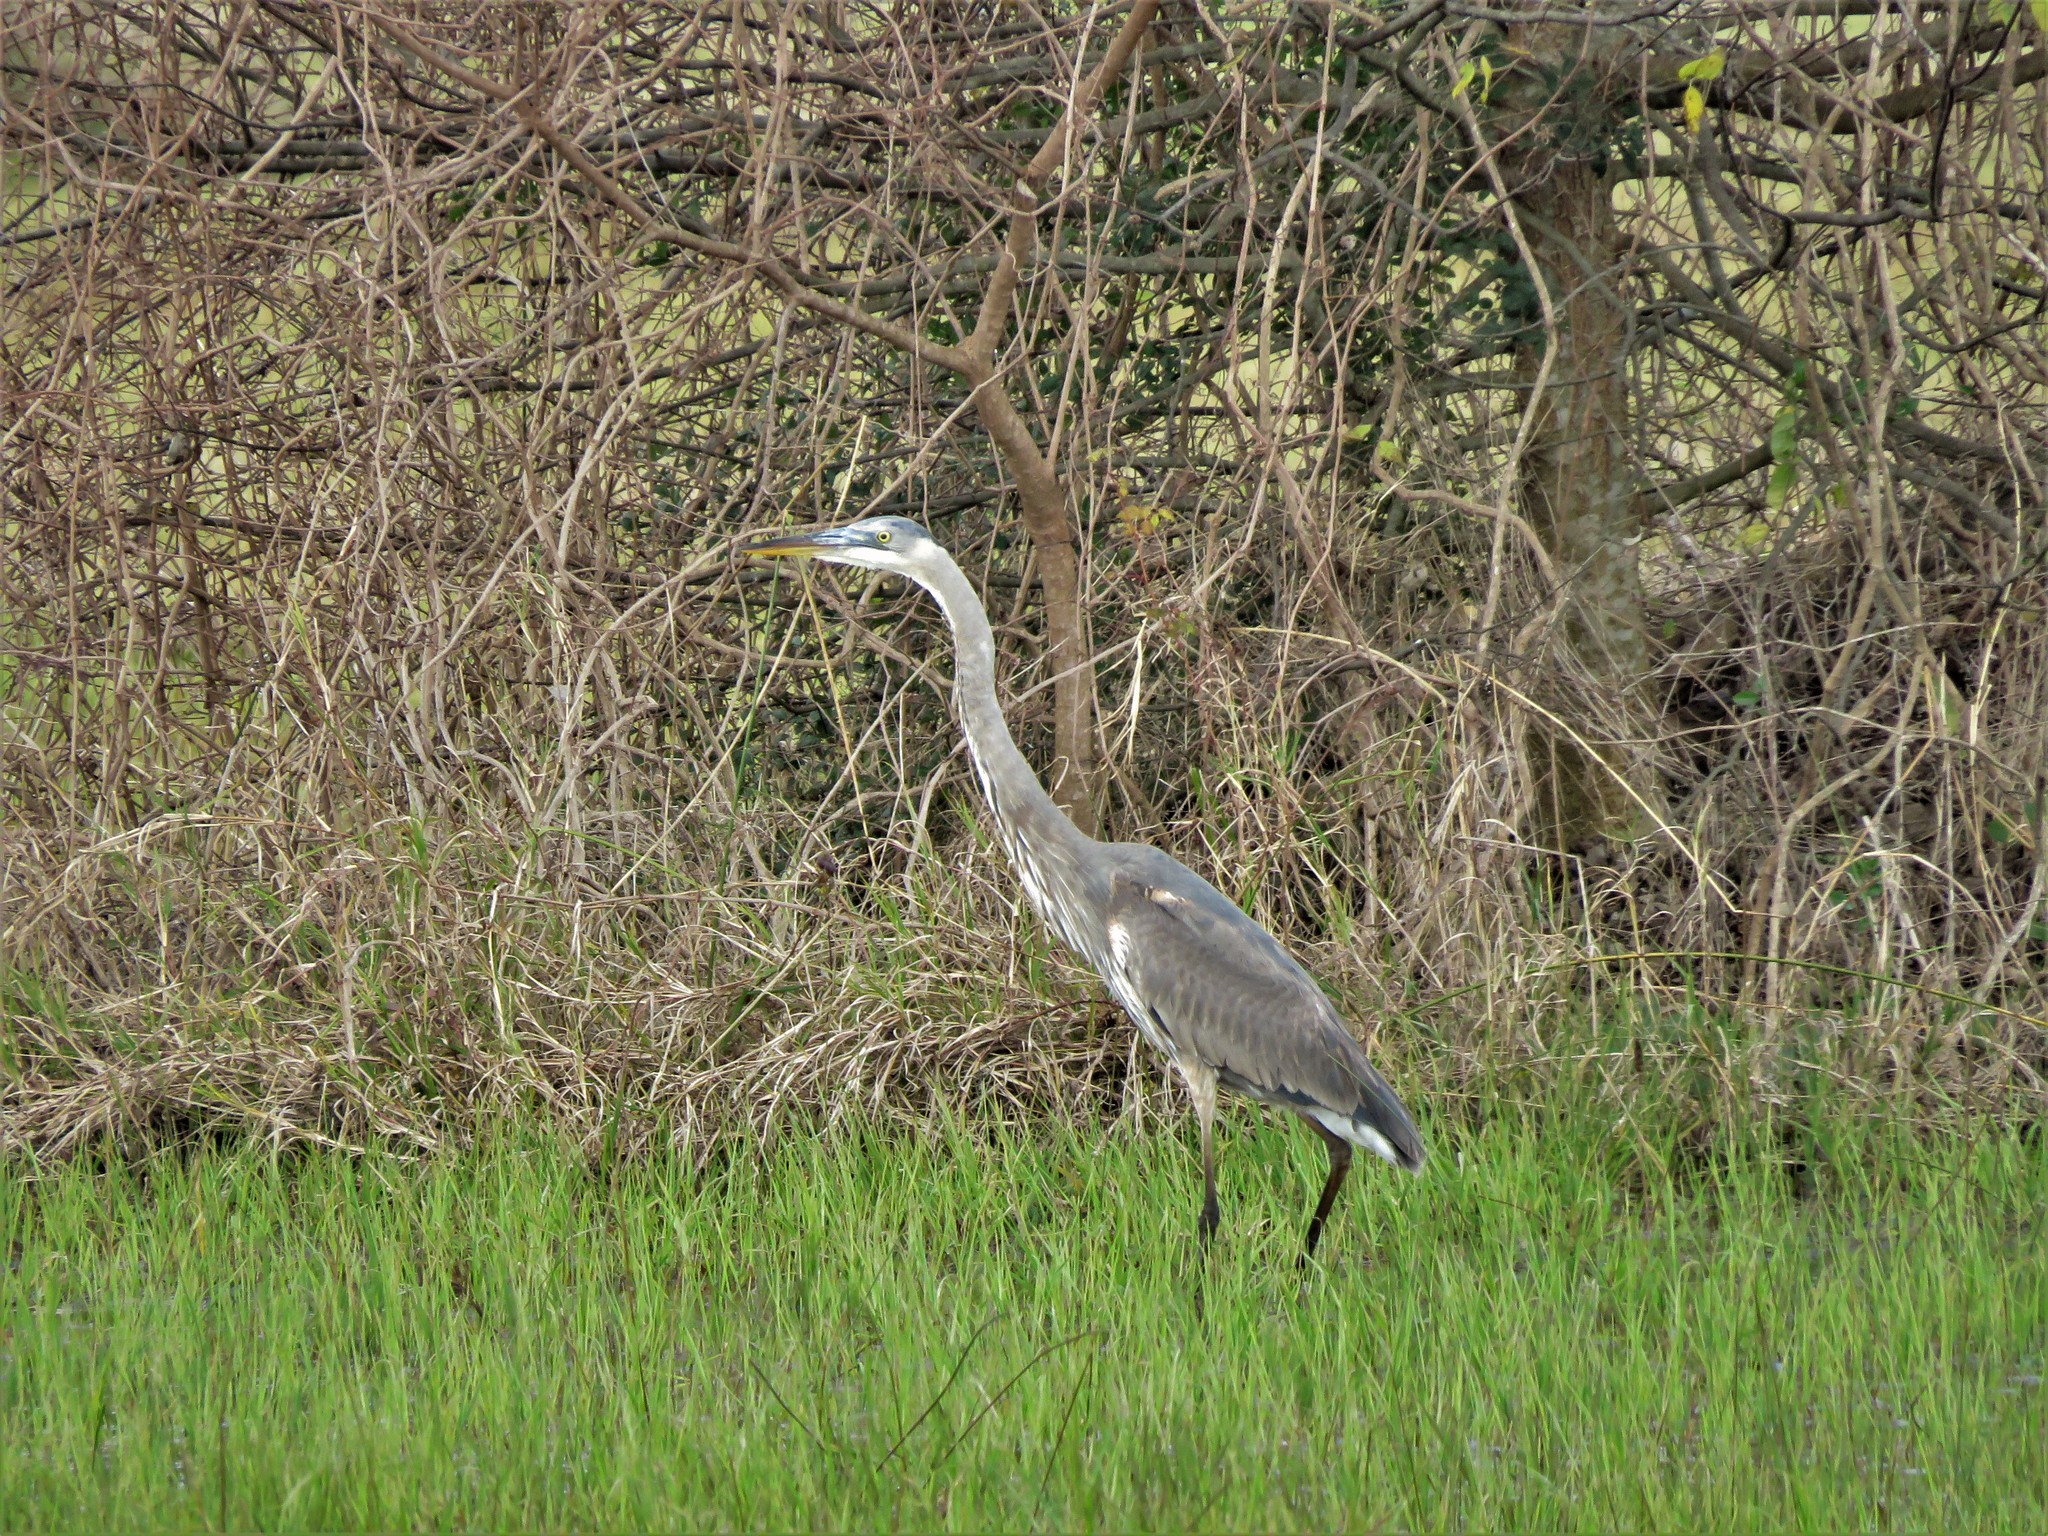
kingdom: Animalia
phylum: Chordata
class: Aves
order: Pelecaniformes
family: Ardeidae
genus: Ardea
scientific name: Ardea herodias
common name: Great blue heron
